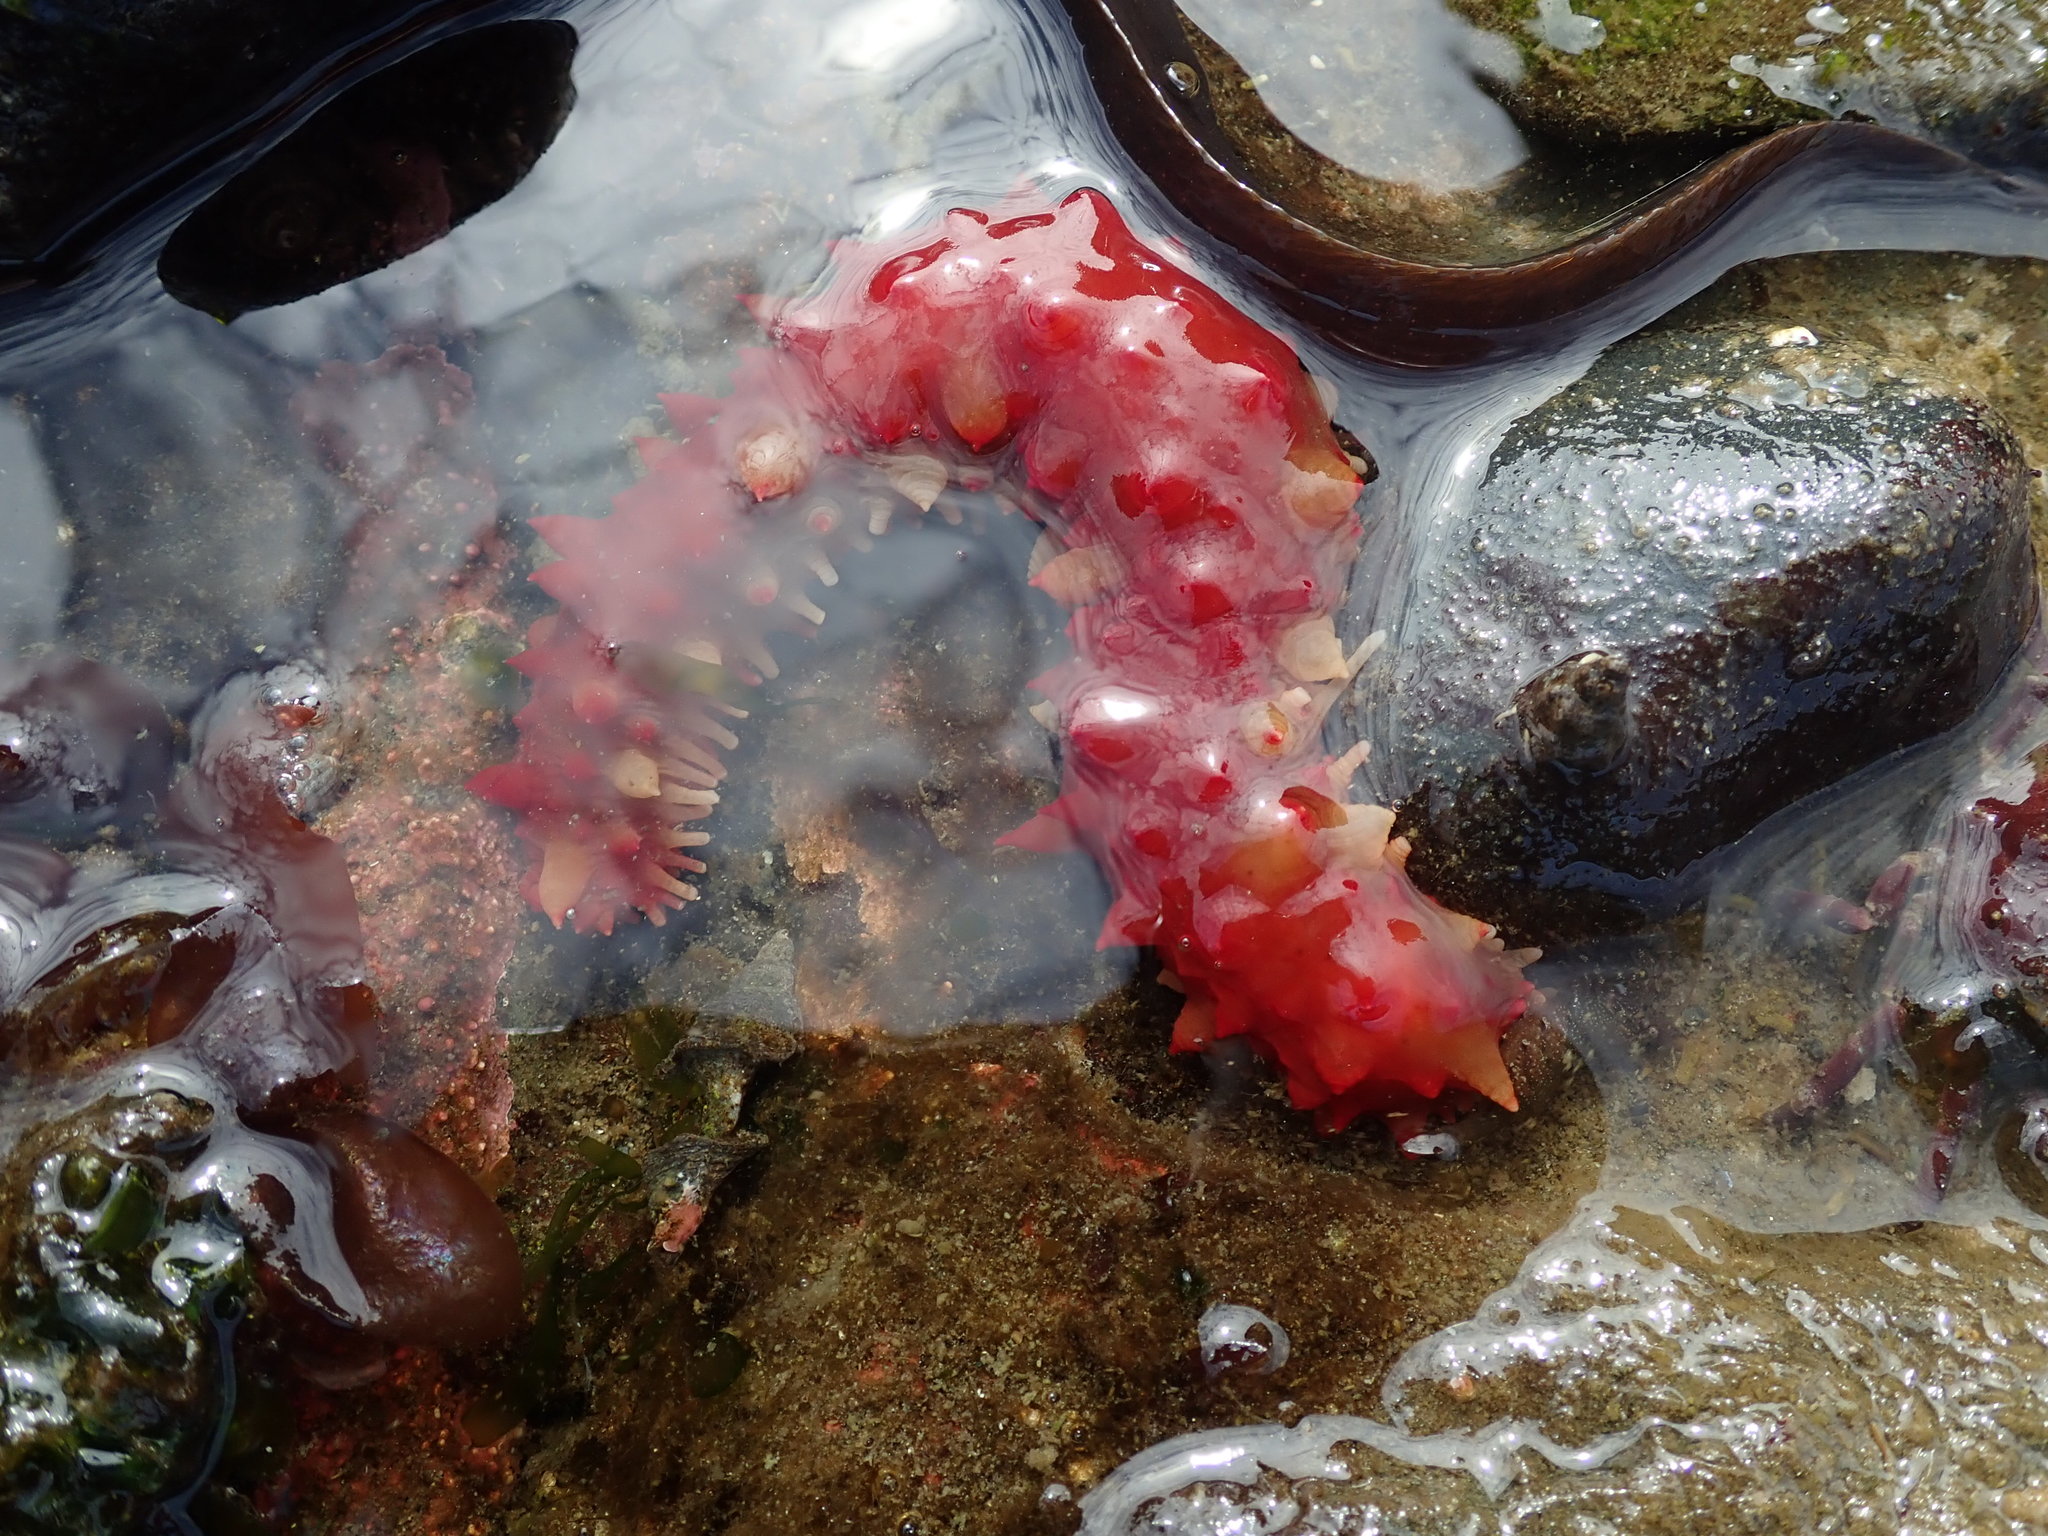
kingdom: Animalia
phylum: Echinodermata
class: Holothuroidea
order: Synallactida
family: Stichopodidae
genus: Apostichopus
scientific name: Apostichopus californicus
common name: California sea cucumber
